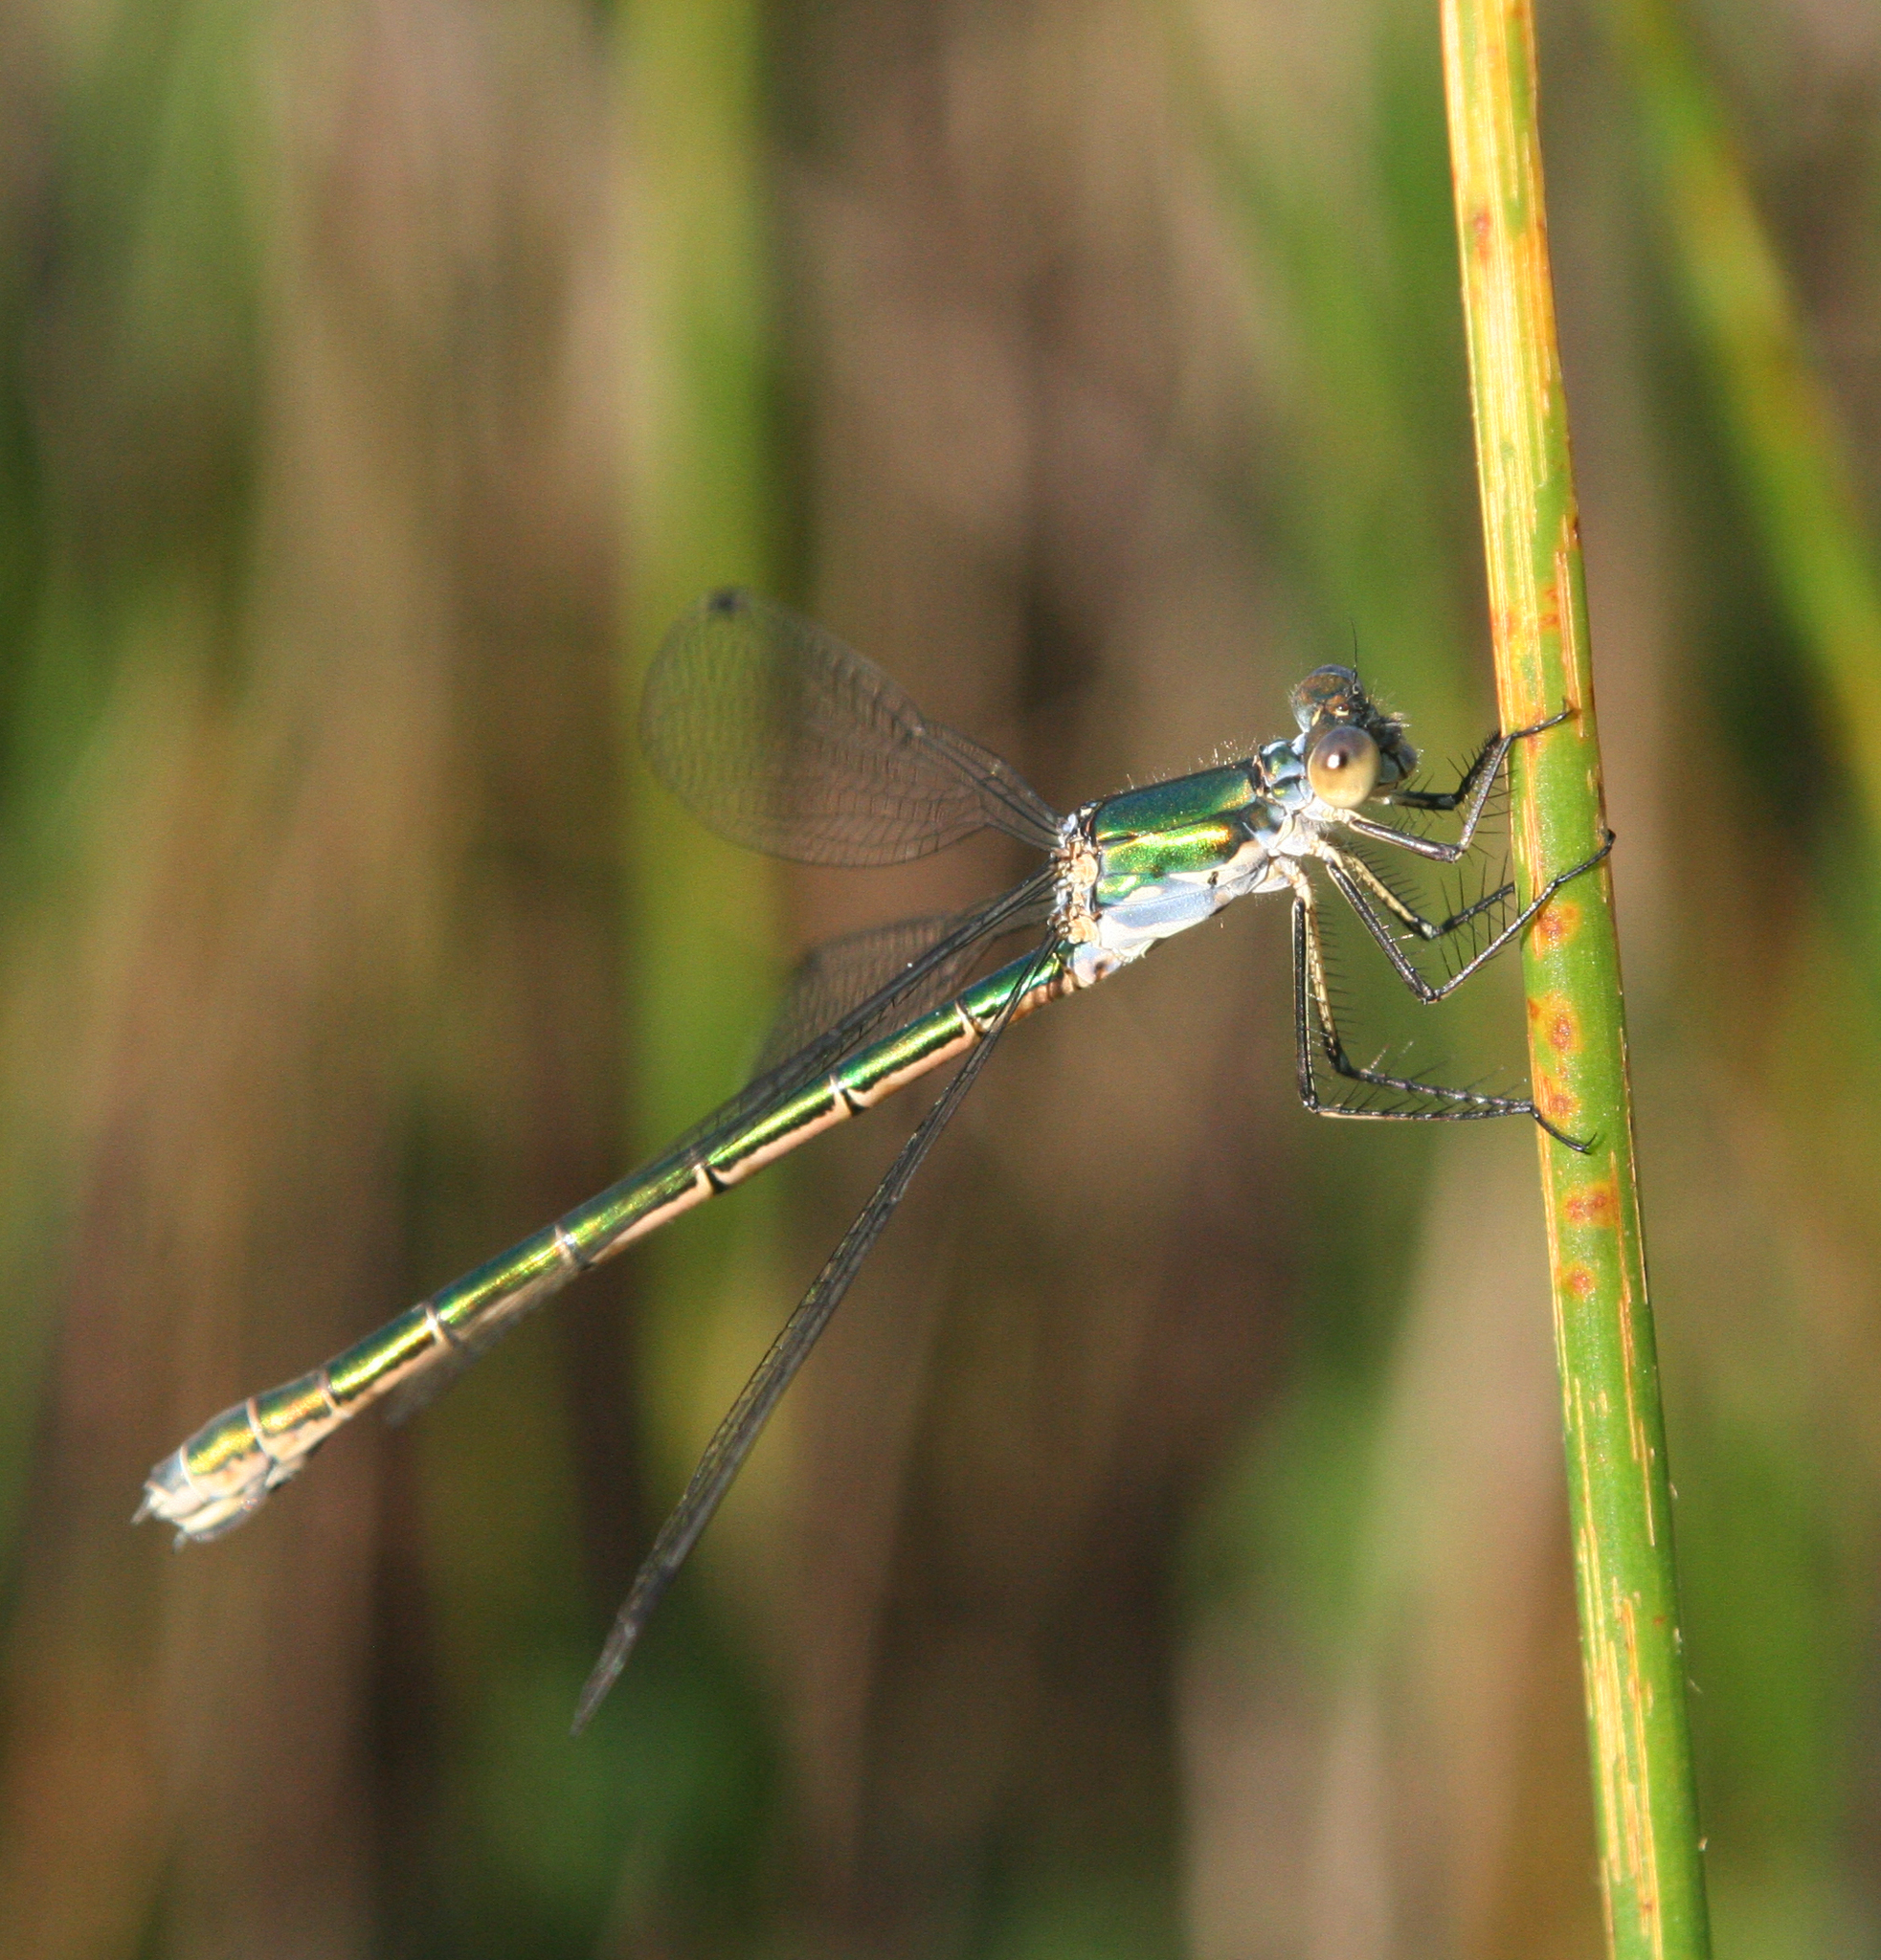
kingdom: Animalia
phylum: Arthropoda
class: Insecta
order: Odonata
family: Lestidae
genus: Lestes
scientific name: Lestes dryas
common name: Scarce emerald damselfly
